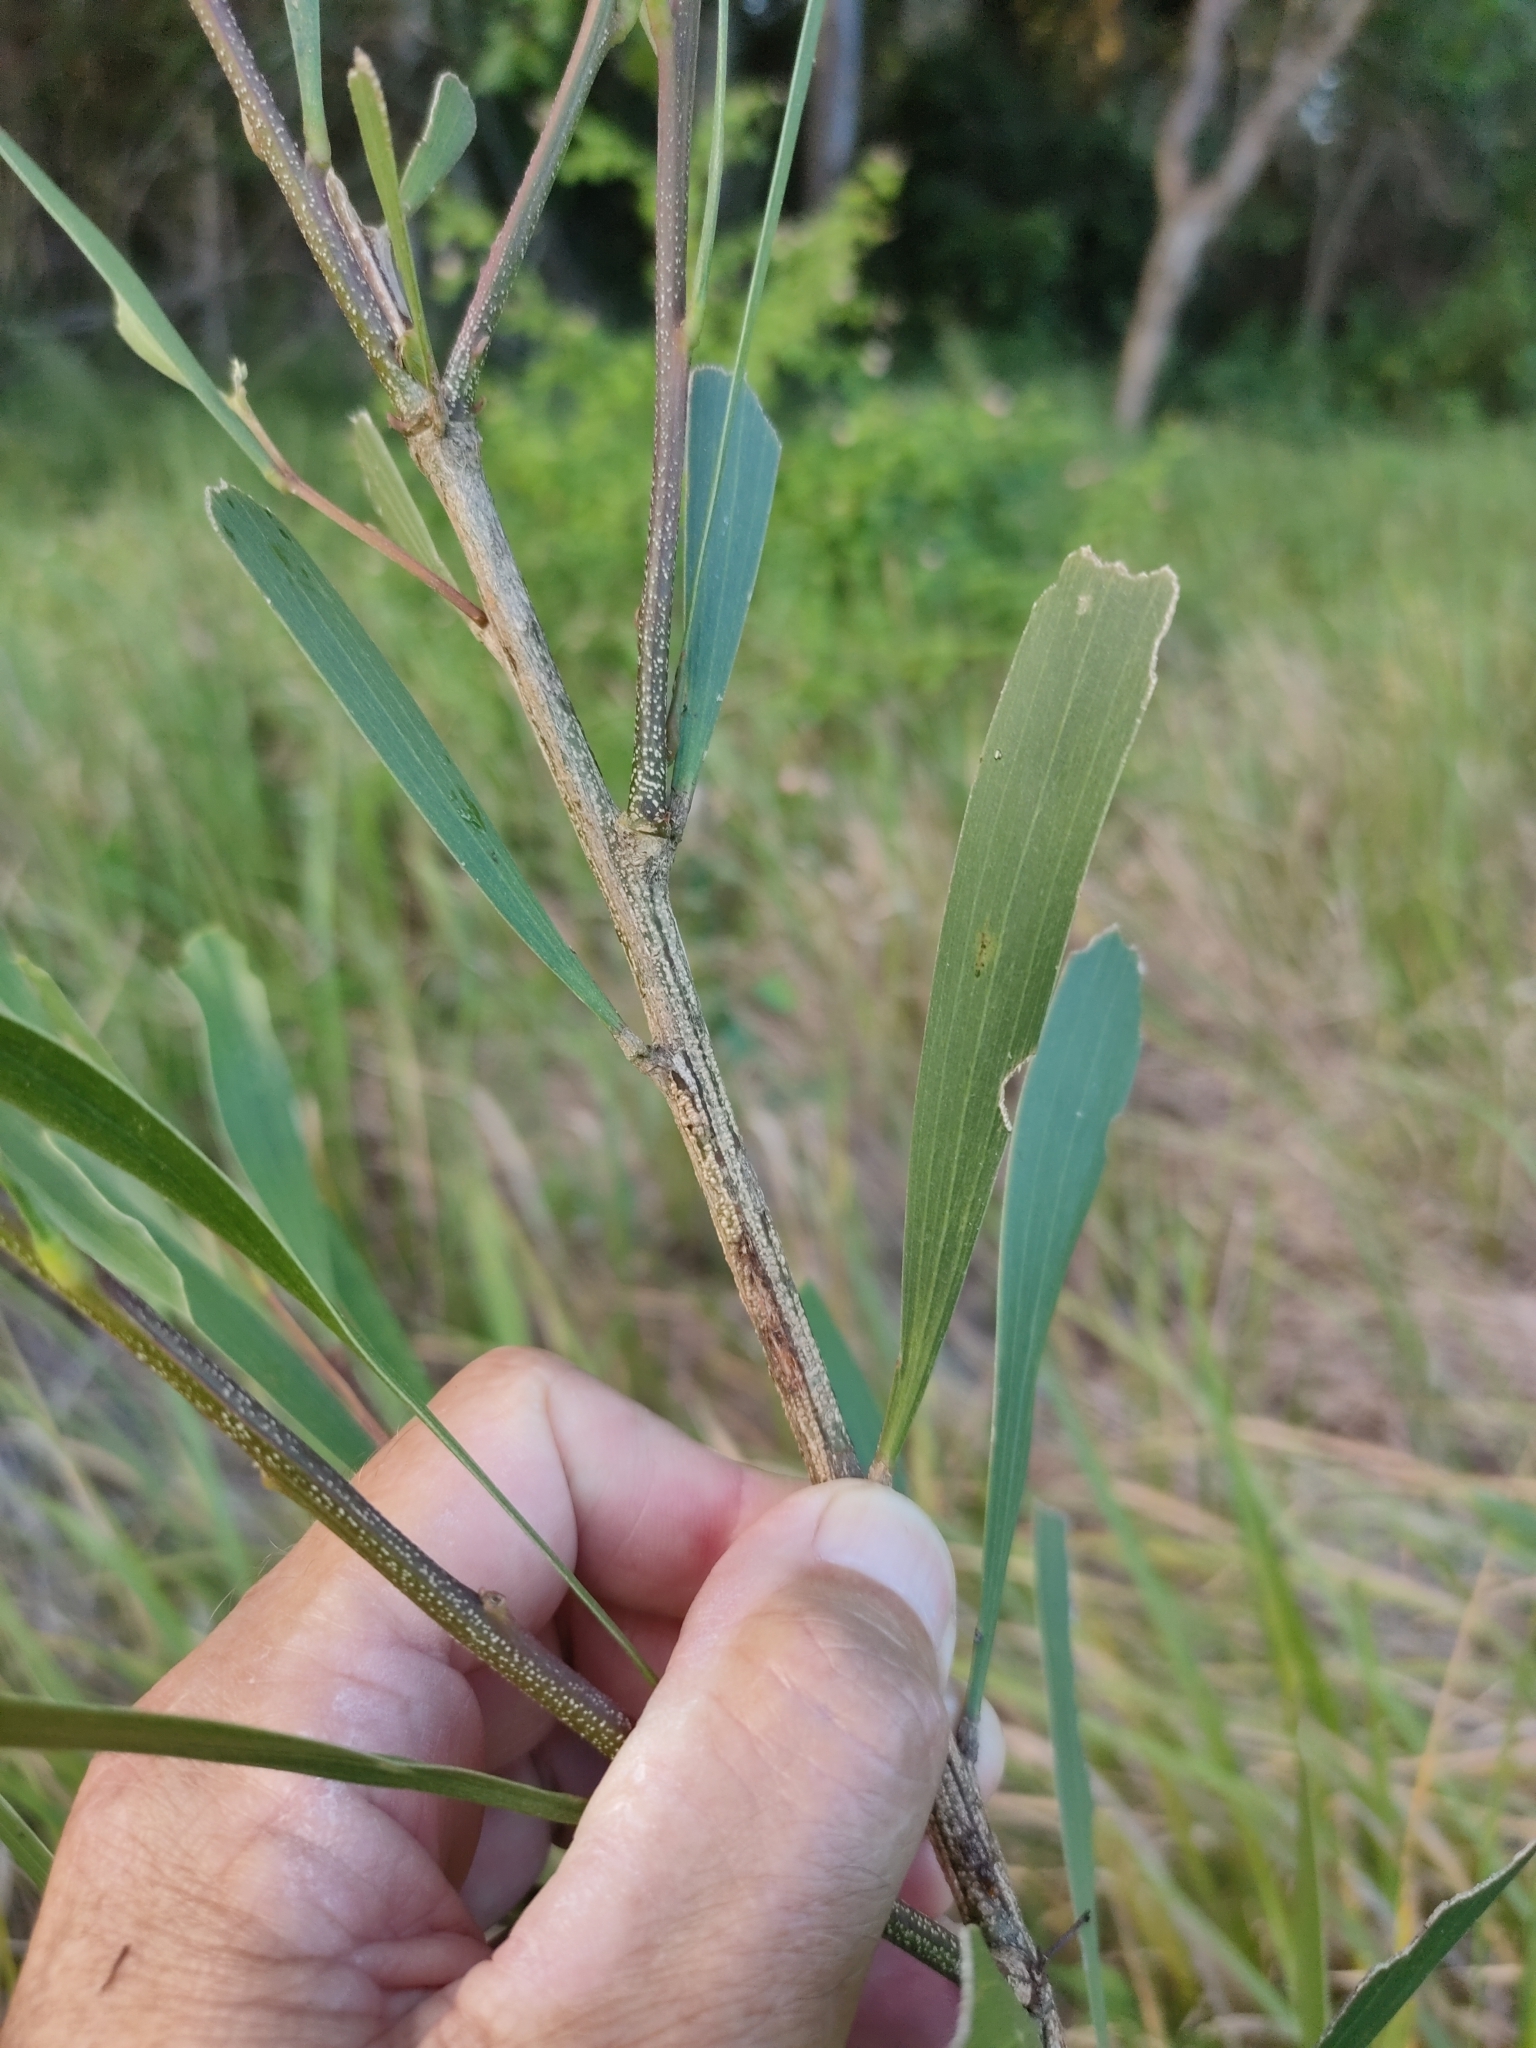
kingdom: Plantae
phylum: Tracheophyta
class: Magnoliopsida
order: Fabales
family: Fabaceae
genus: Acacia
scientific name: Acacia maidenii
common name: Maiden's wattle
